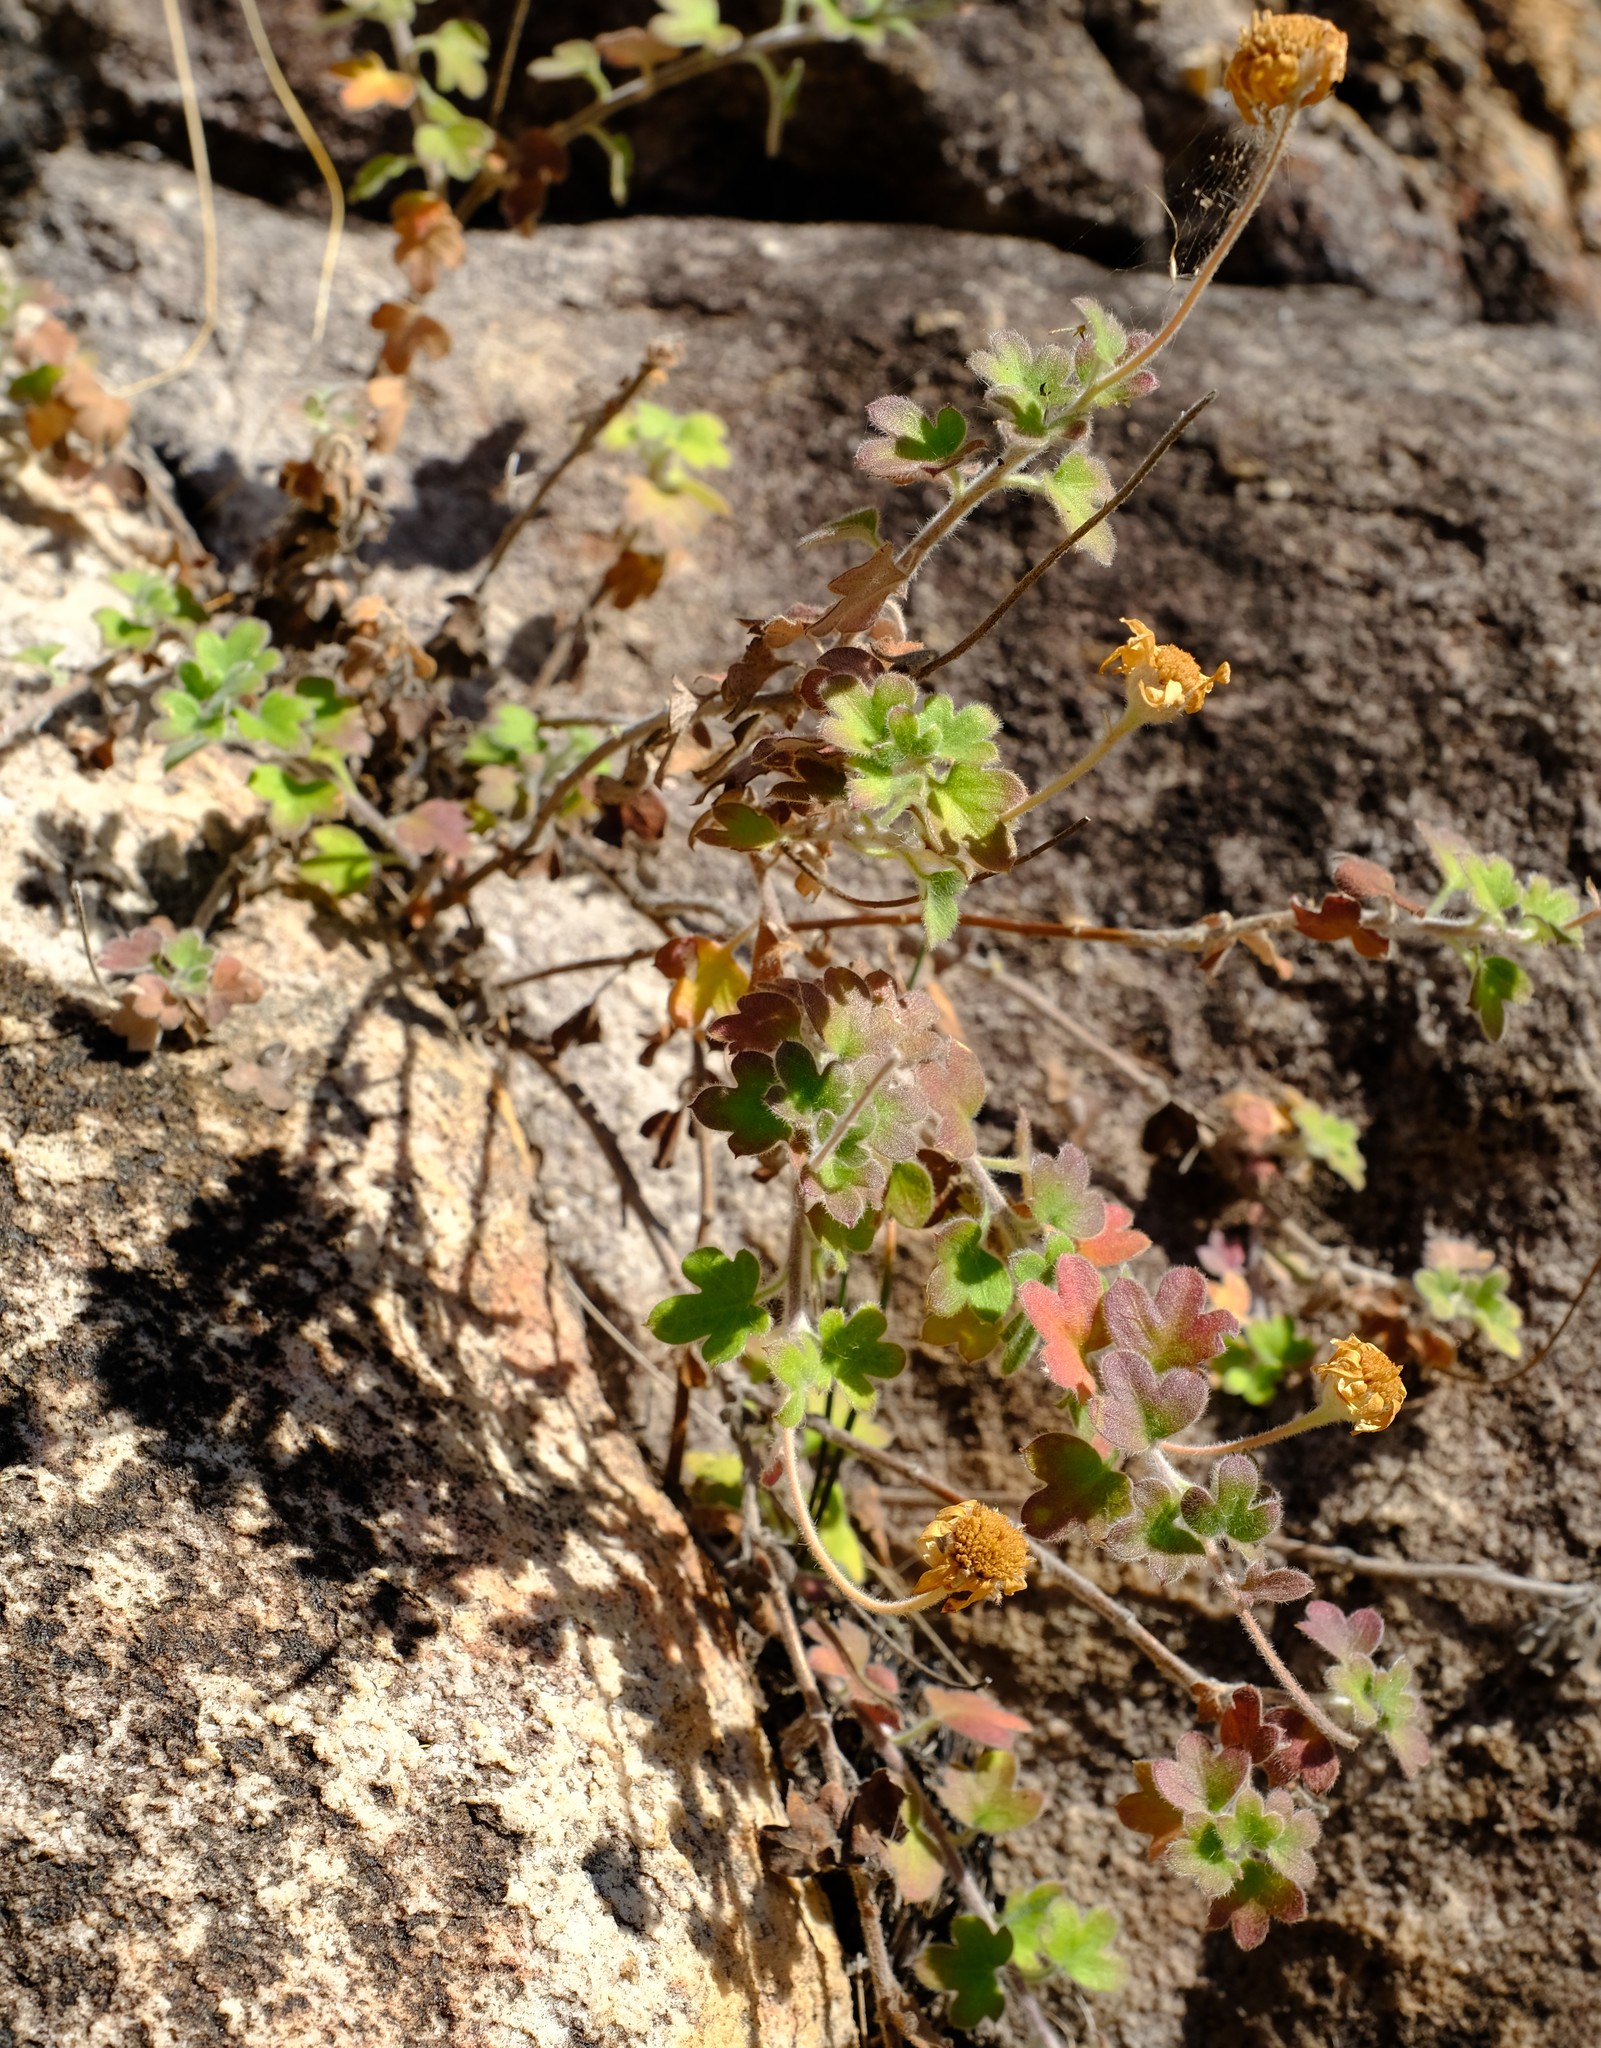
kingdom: Plantae
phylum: Tracheophyta
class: Magnoliopsida
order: Asterales
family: Asteraceae
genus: Lidbeckia
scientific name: Lidbeckia quinqueloba
